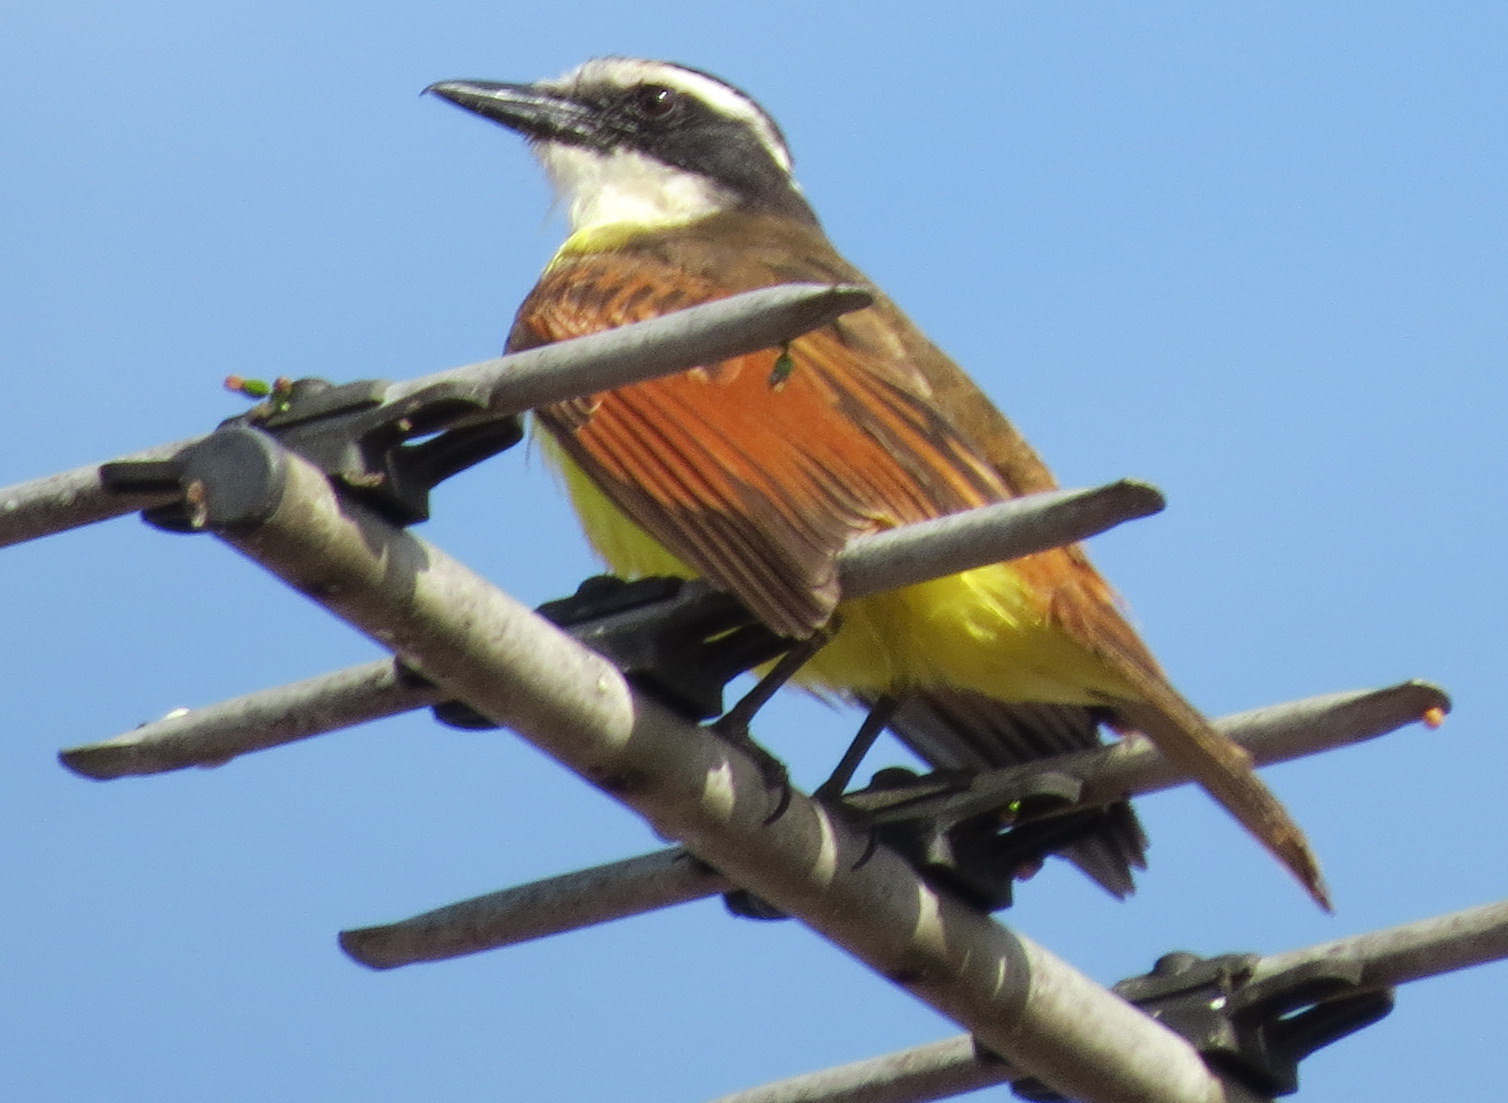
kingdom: Animalia
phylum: Chordata
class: Aves
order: Passeriformes
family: Tyrannidae
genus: Pitangus
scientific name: Pitangus sulphuratus
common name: Great kiskadee
